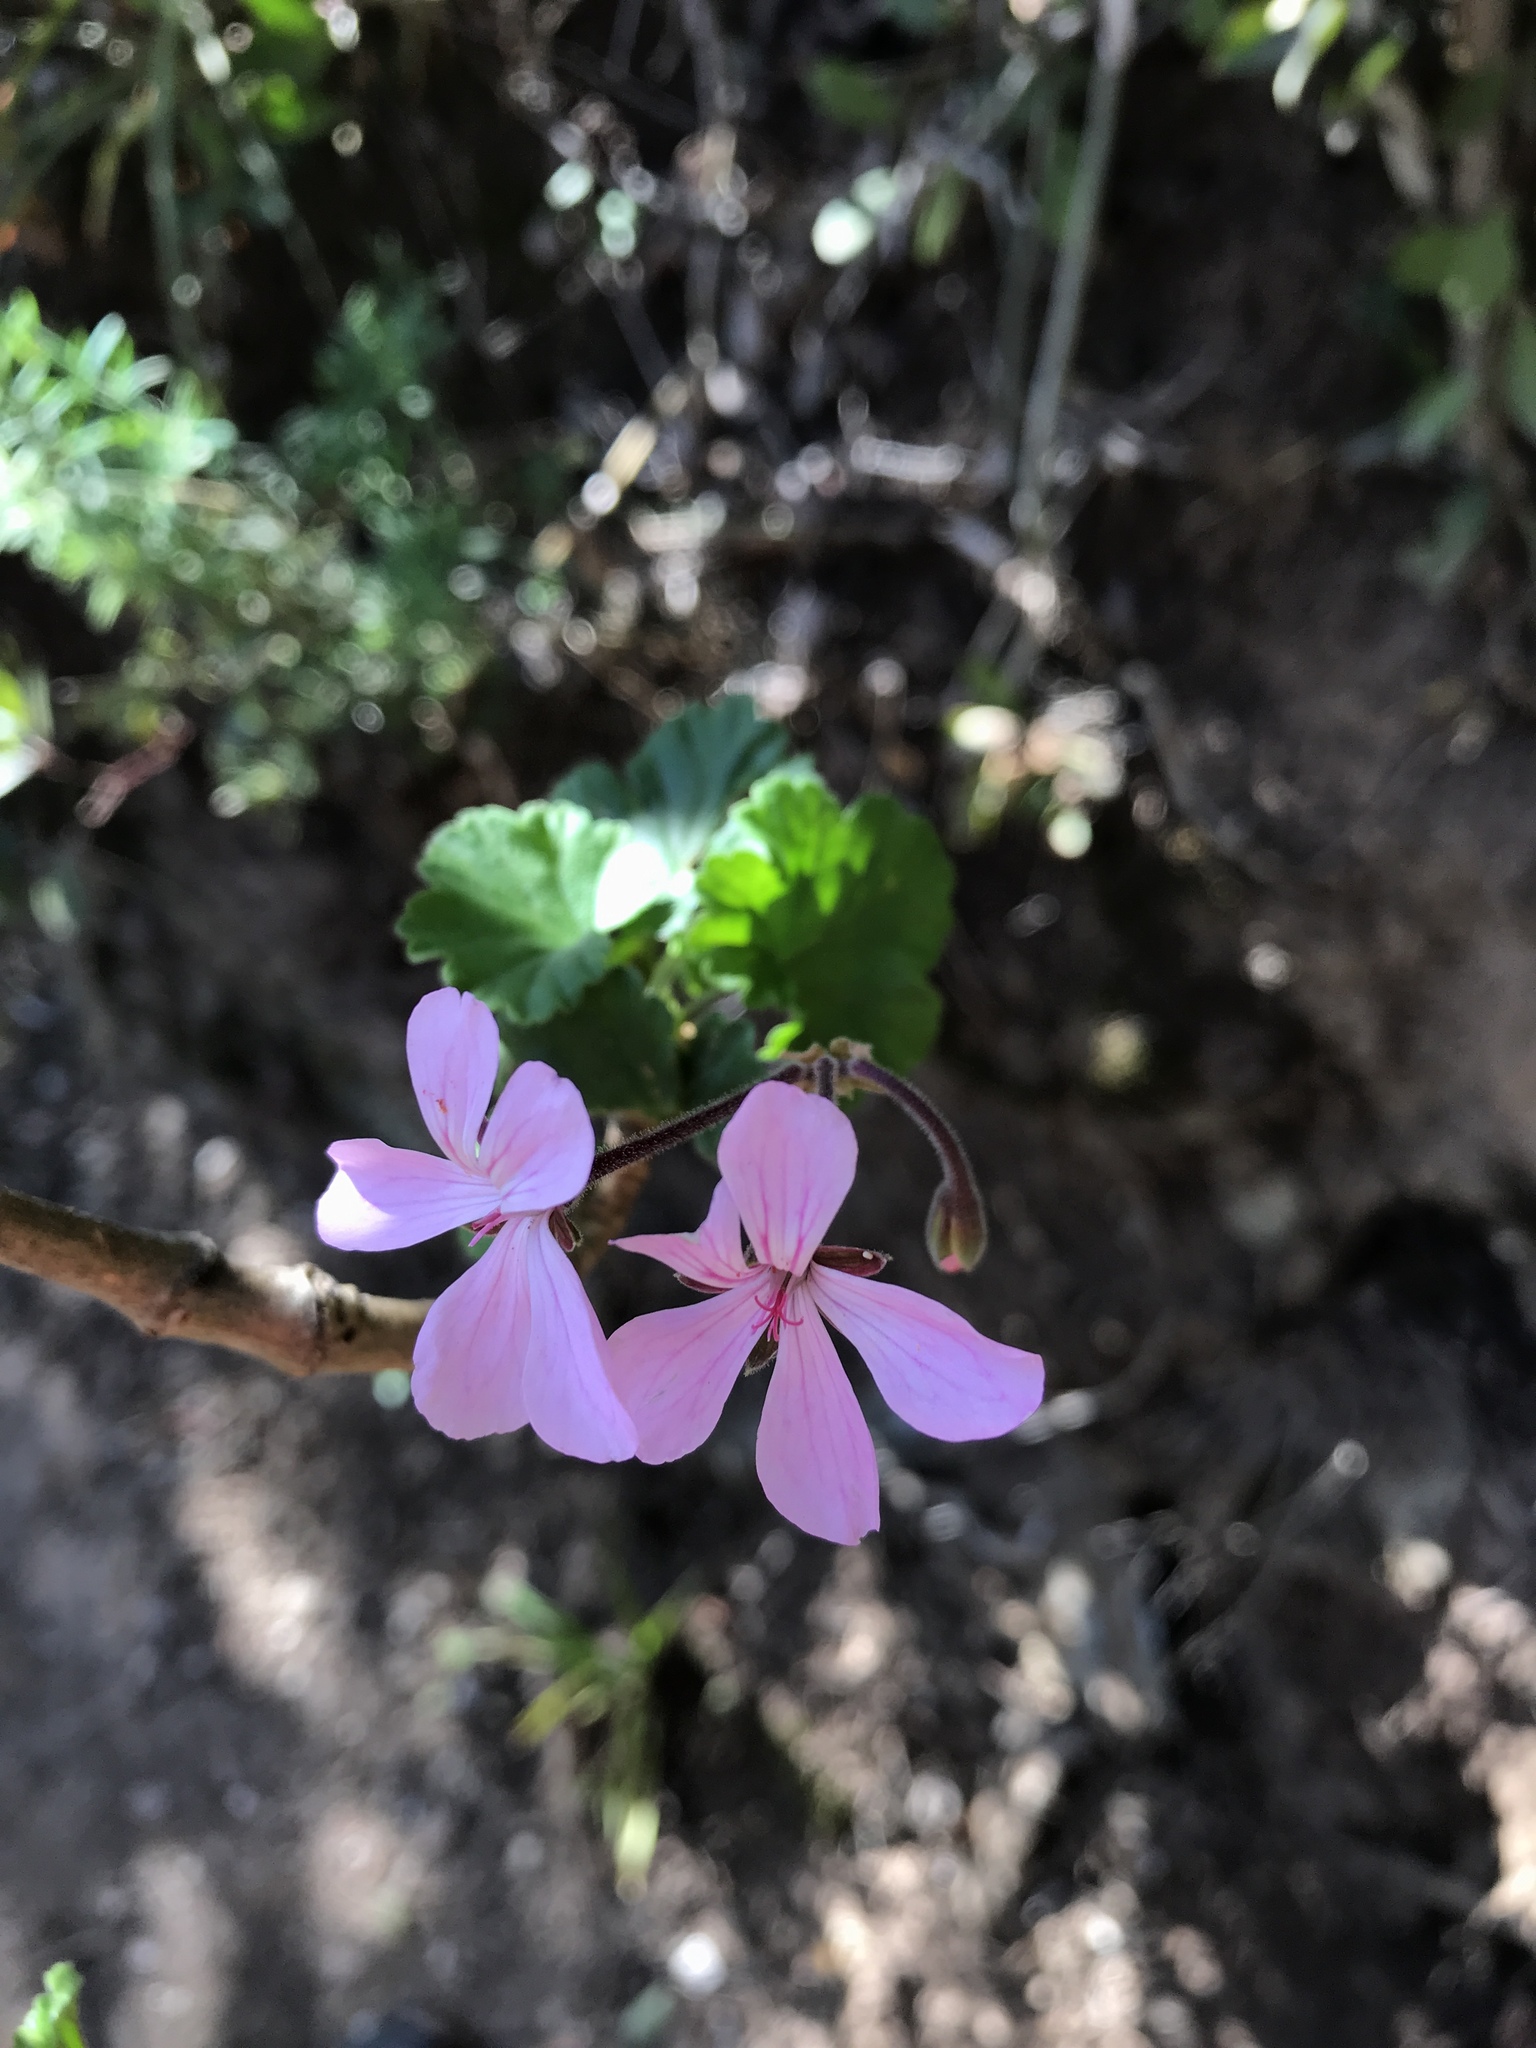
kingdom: Plantae
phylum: Tracheophyta
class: Magnoliopsida
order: Geraniales
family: Geraniaceae
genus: Pelargonium
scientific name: Pelargonium zonale
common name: Horseshoe geranium
